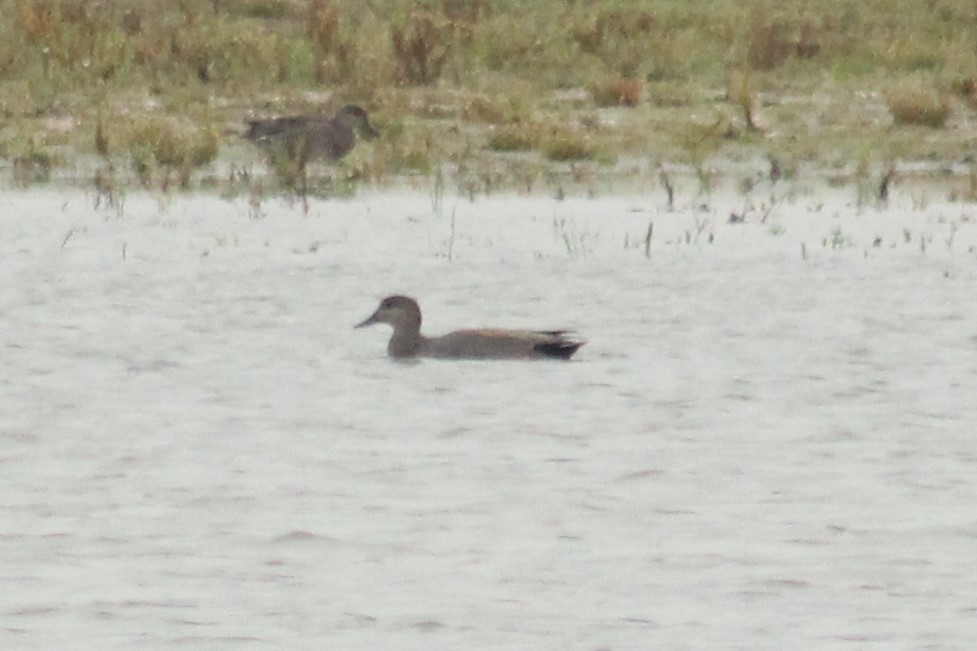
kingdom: Animalia
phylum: Chordata
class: Aves
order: Anseriformes
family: Anatidae
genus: Mareca
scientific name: Mareca strepera
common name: Gadwall
